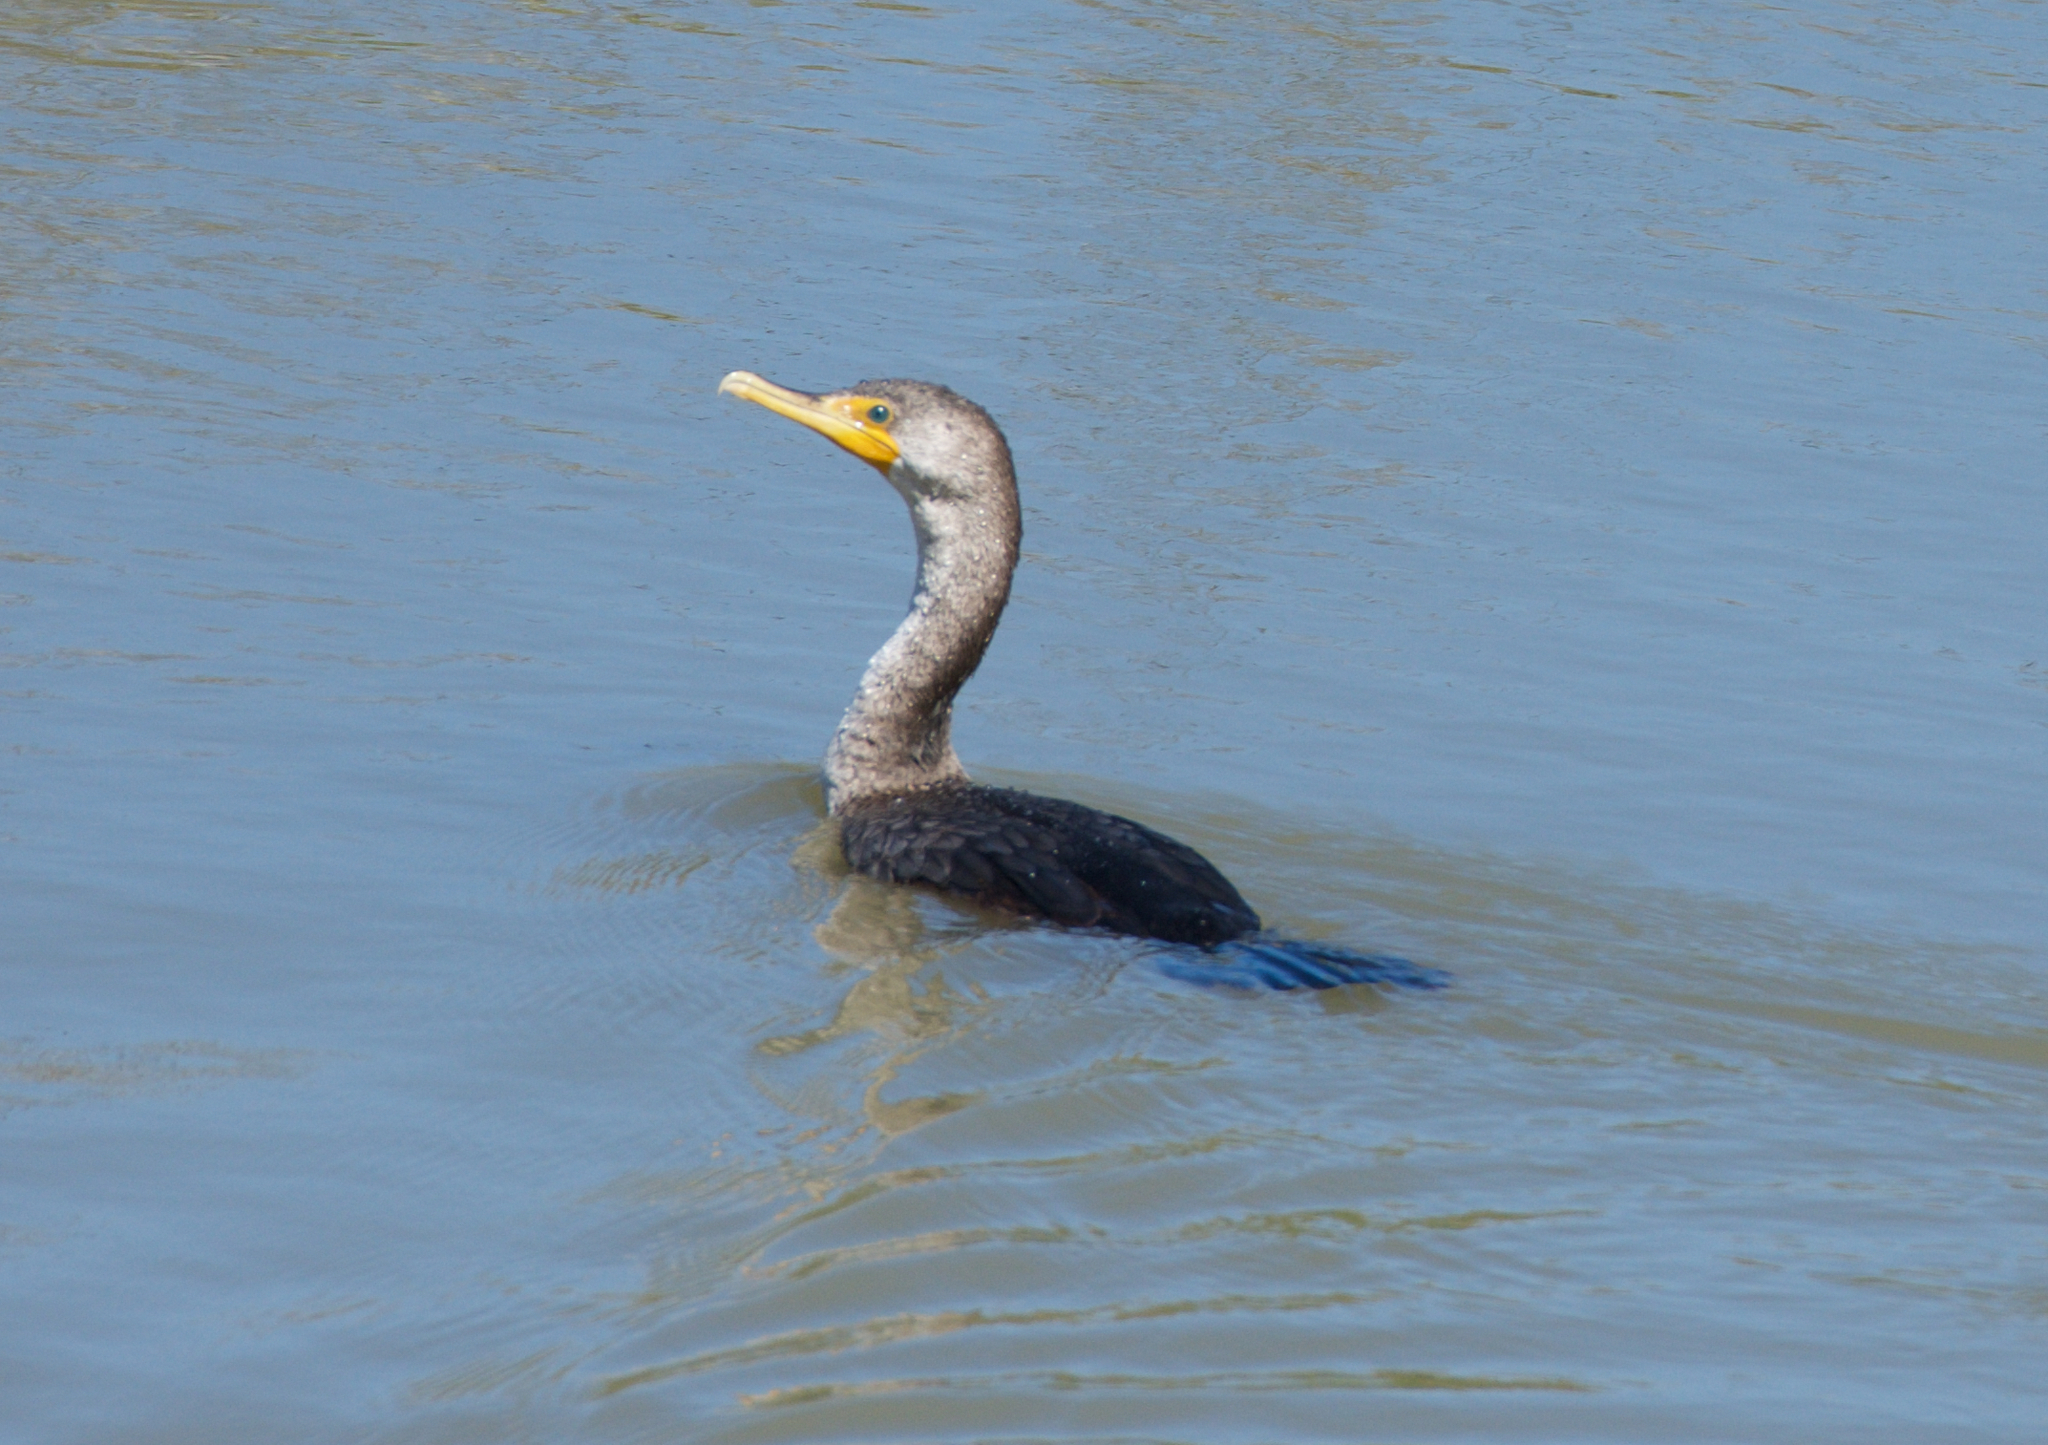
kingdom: Animalia
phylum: Chordata
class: Aves
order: Suliformes
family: Phalacrocoracidae
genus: Phalacrocorax
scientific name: Phalacrocorax auritus
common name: Double-crested cormorant
